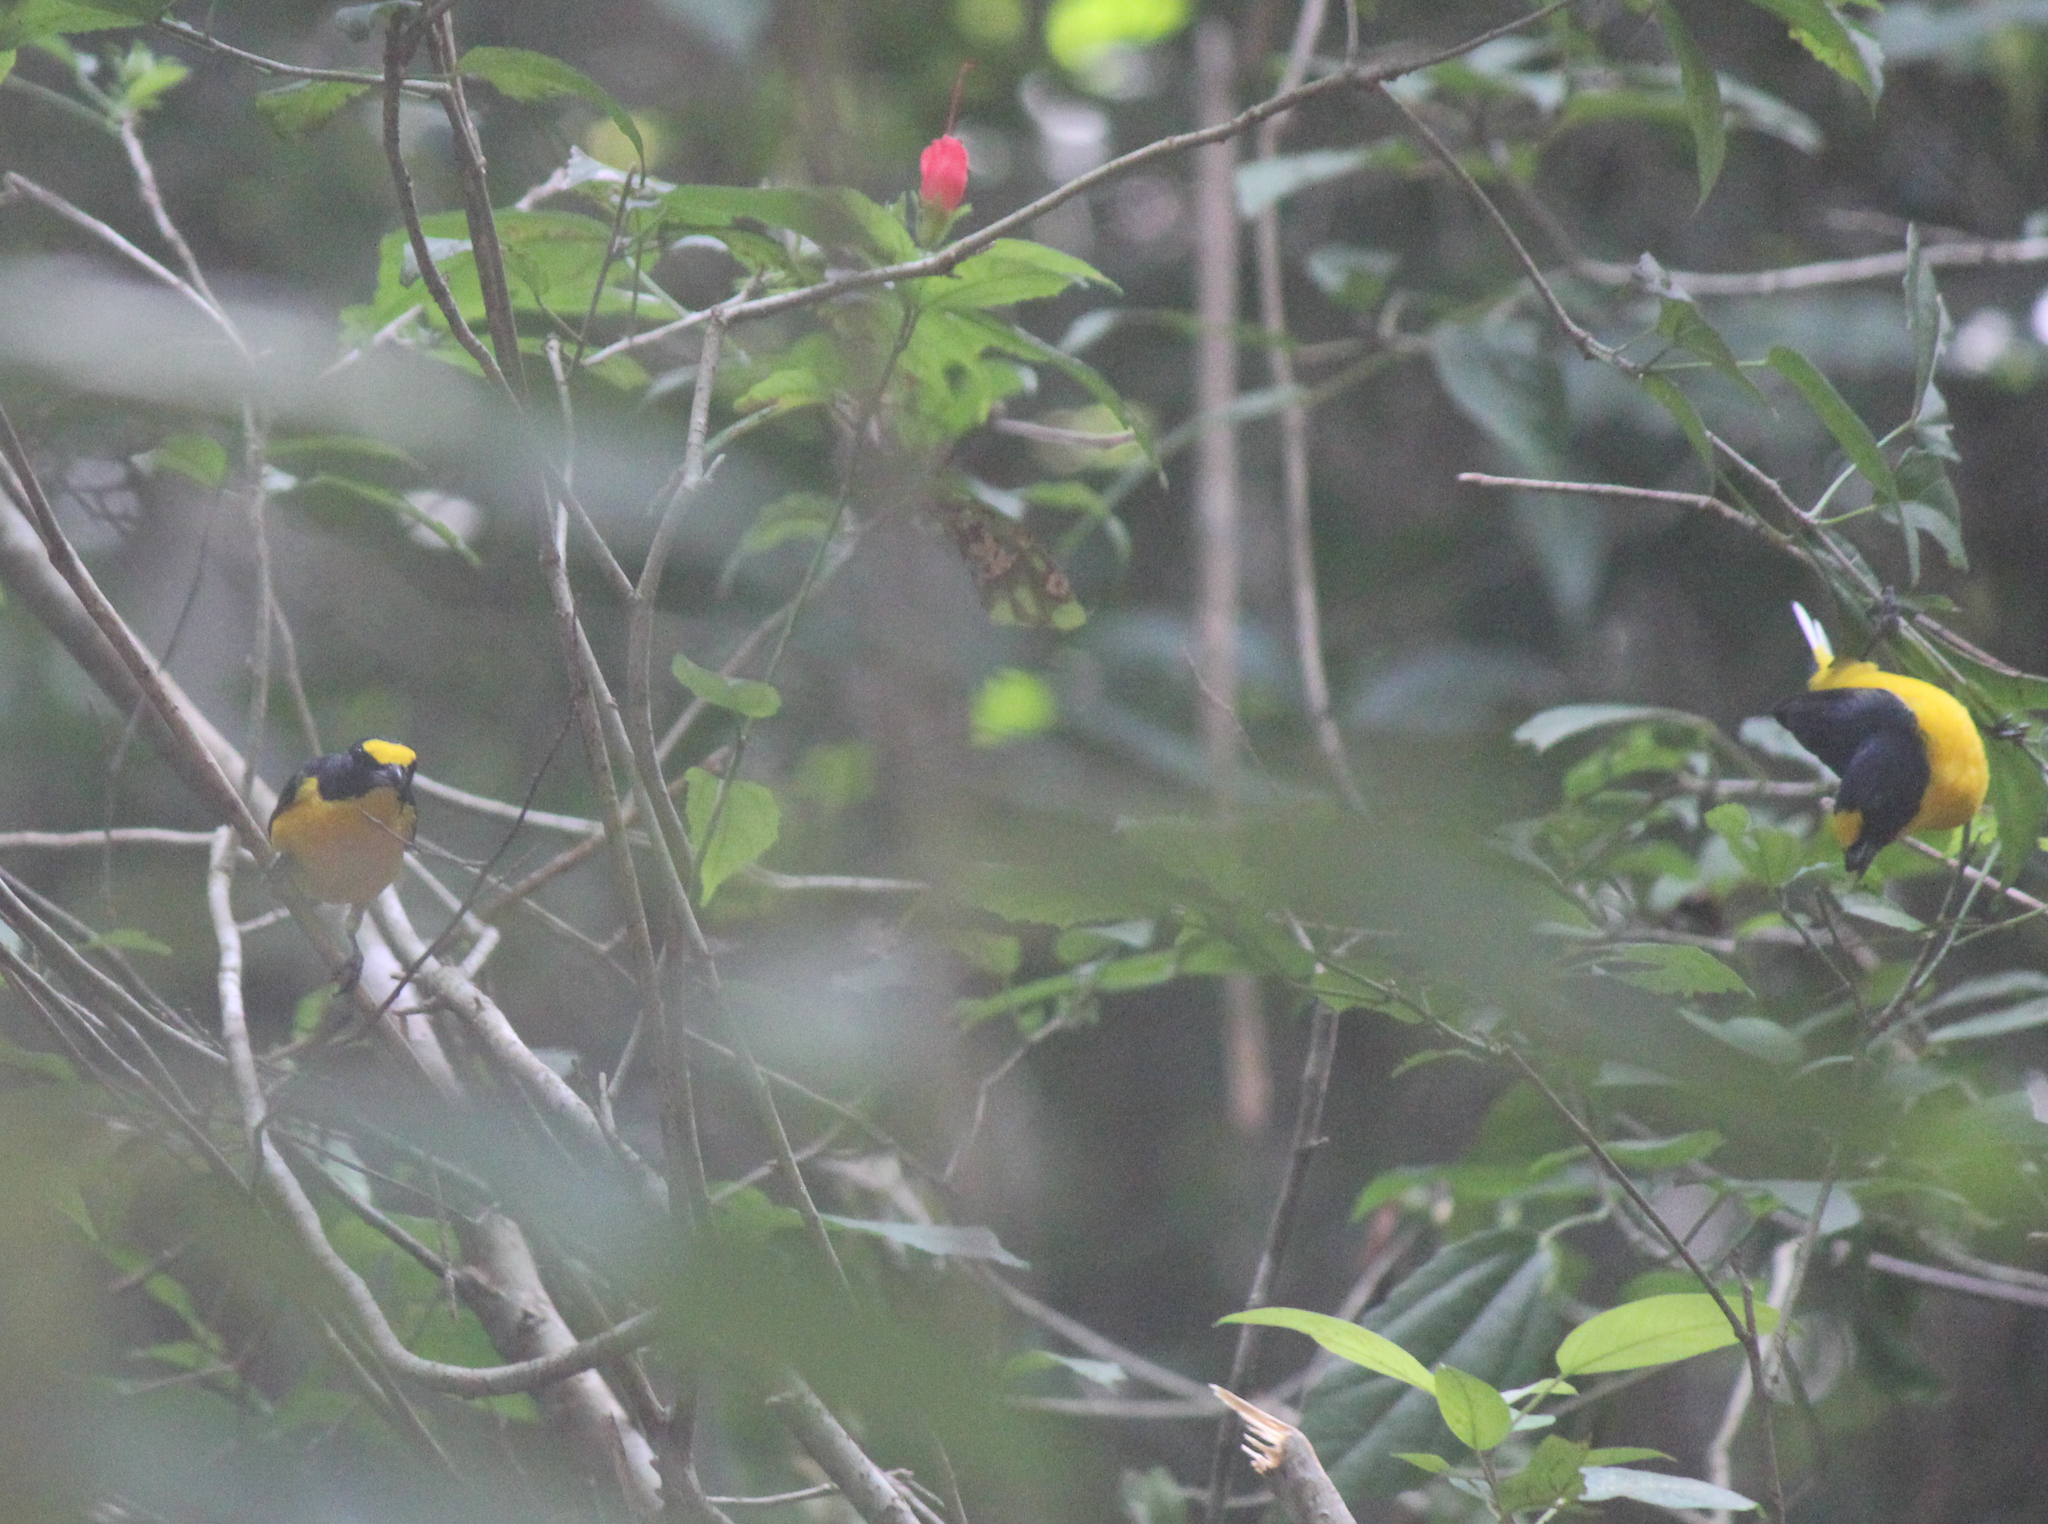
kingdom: Animalia
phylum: Chordata
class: Aves
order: Passeriformes
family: Fringillidae
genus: Euphonia
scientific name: Euphonia hirundinacea
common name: Yellow-throated euphonia
